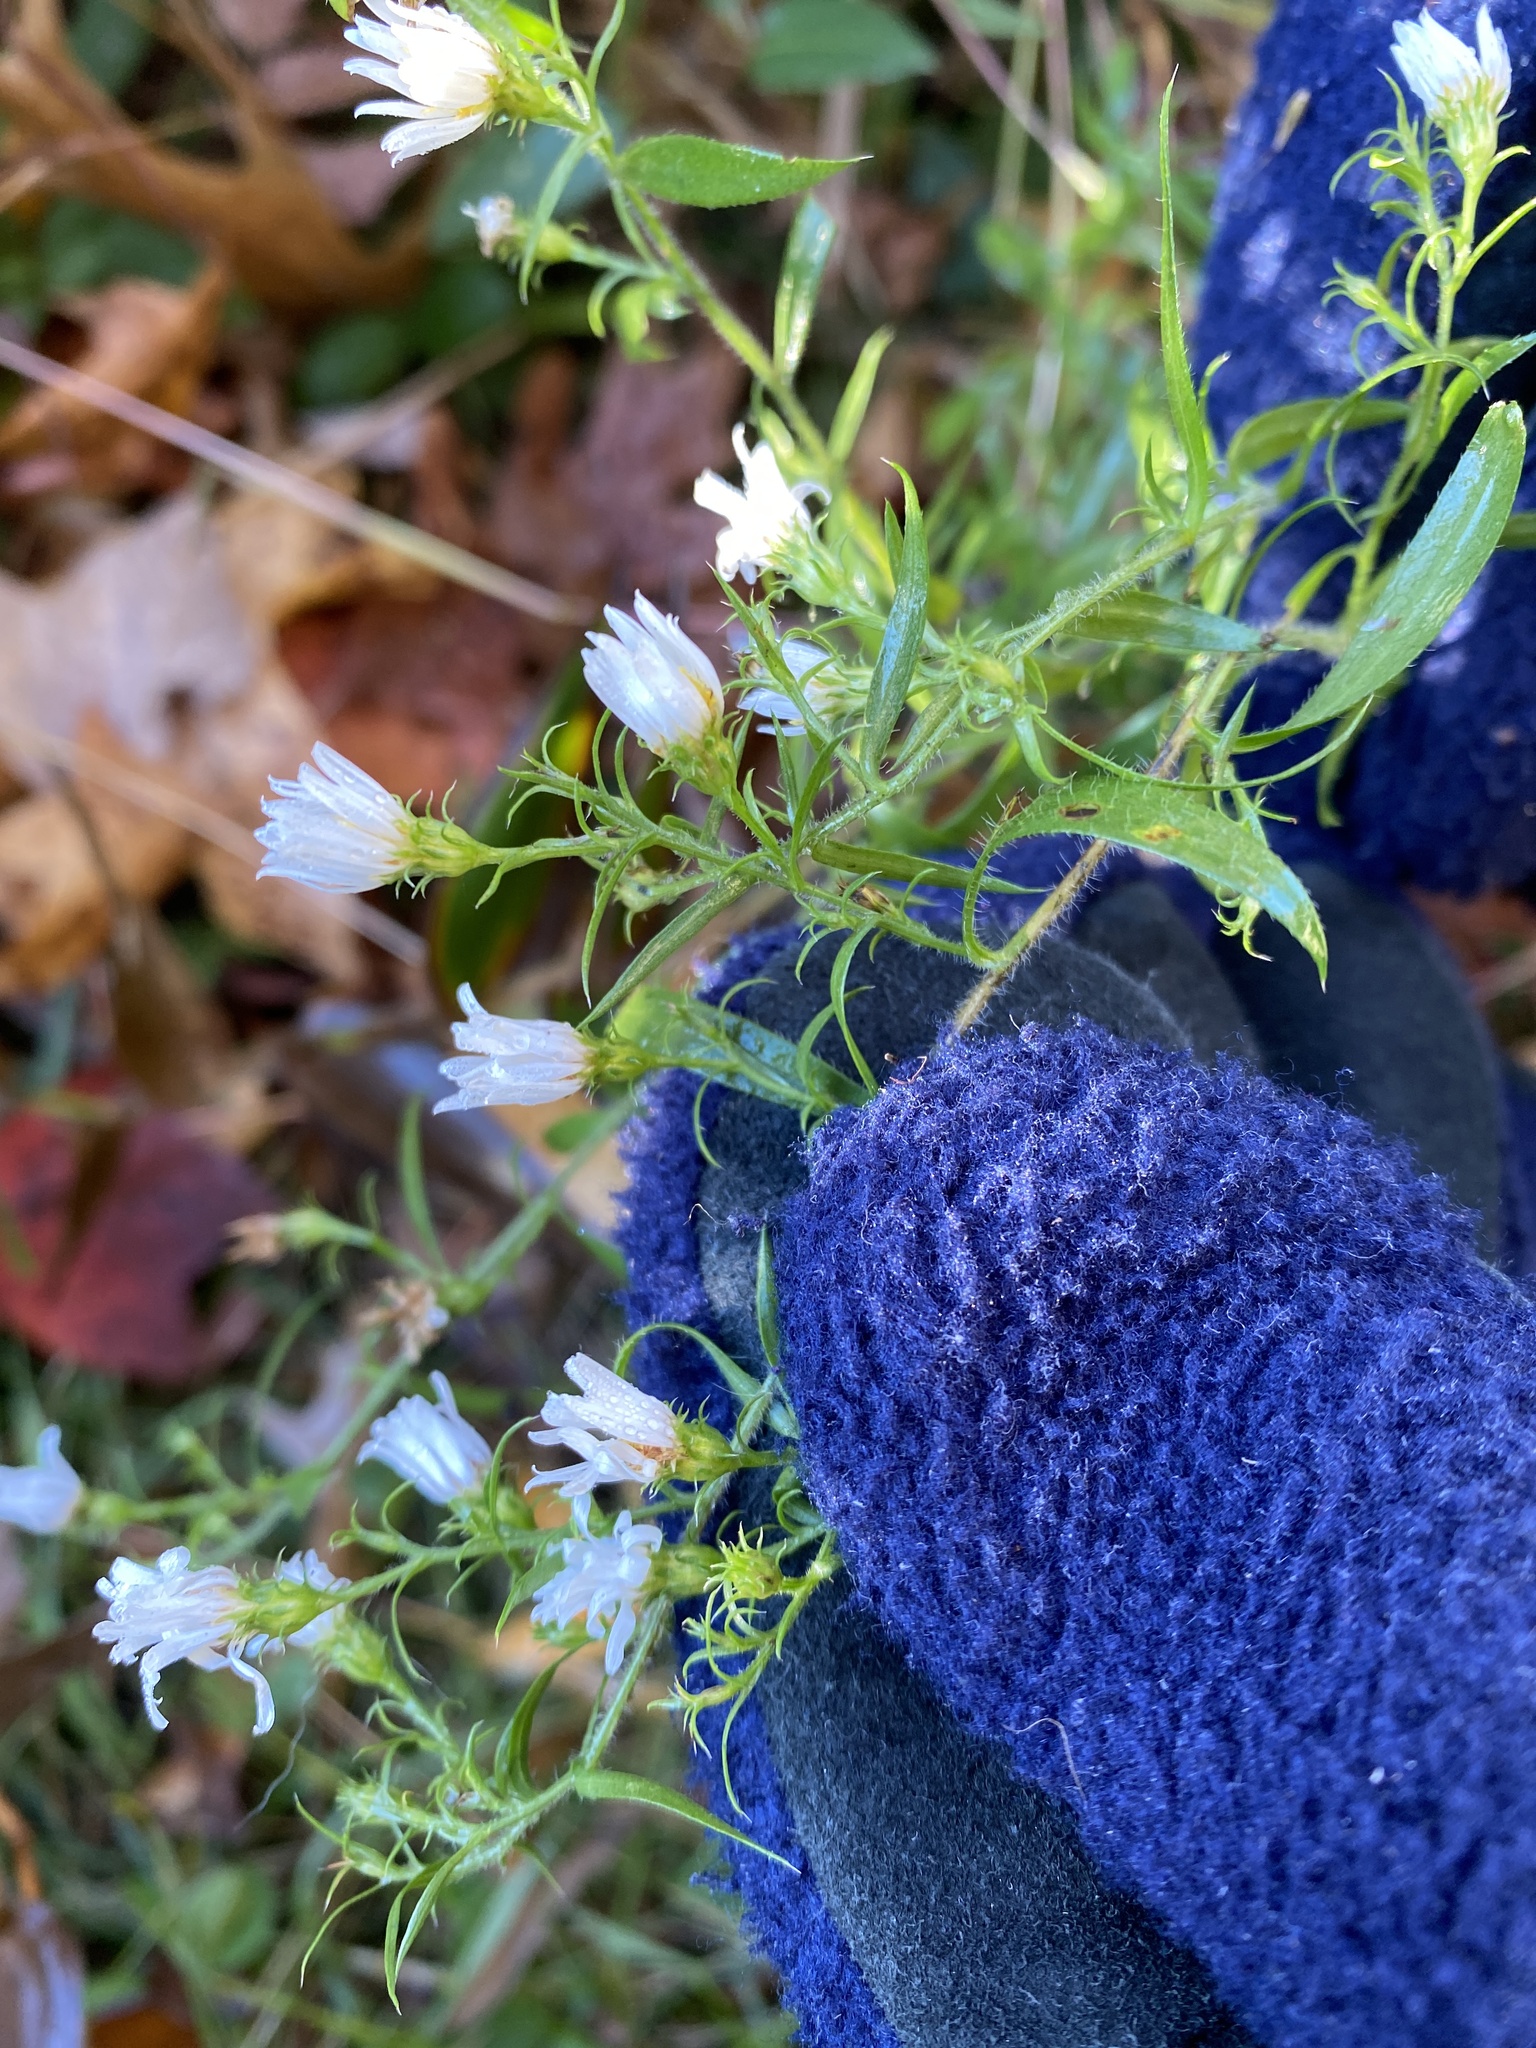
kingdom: Plantae
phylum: Tracheophyta
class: Magnoliopsida
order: Asterales
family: Asteraceae
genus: Symphyotrichum
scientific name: Symphyotrichum pilosum
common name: Awl aster
